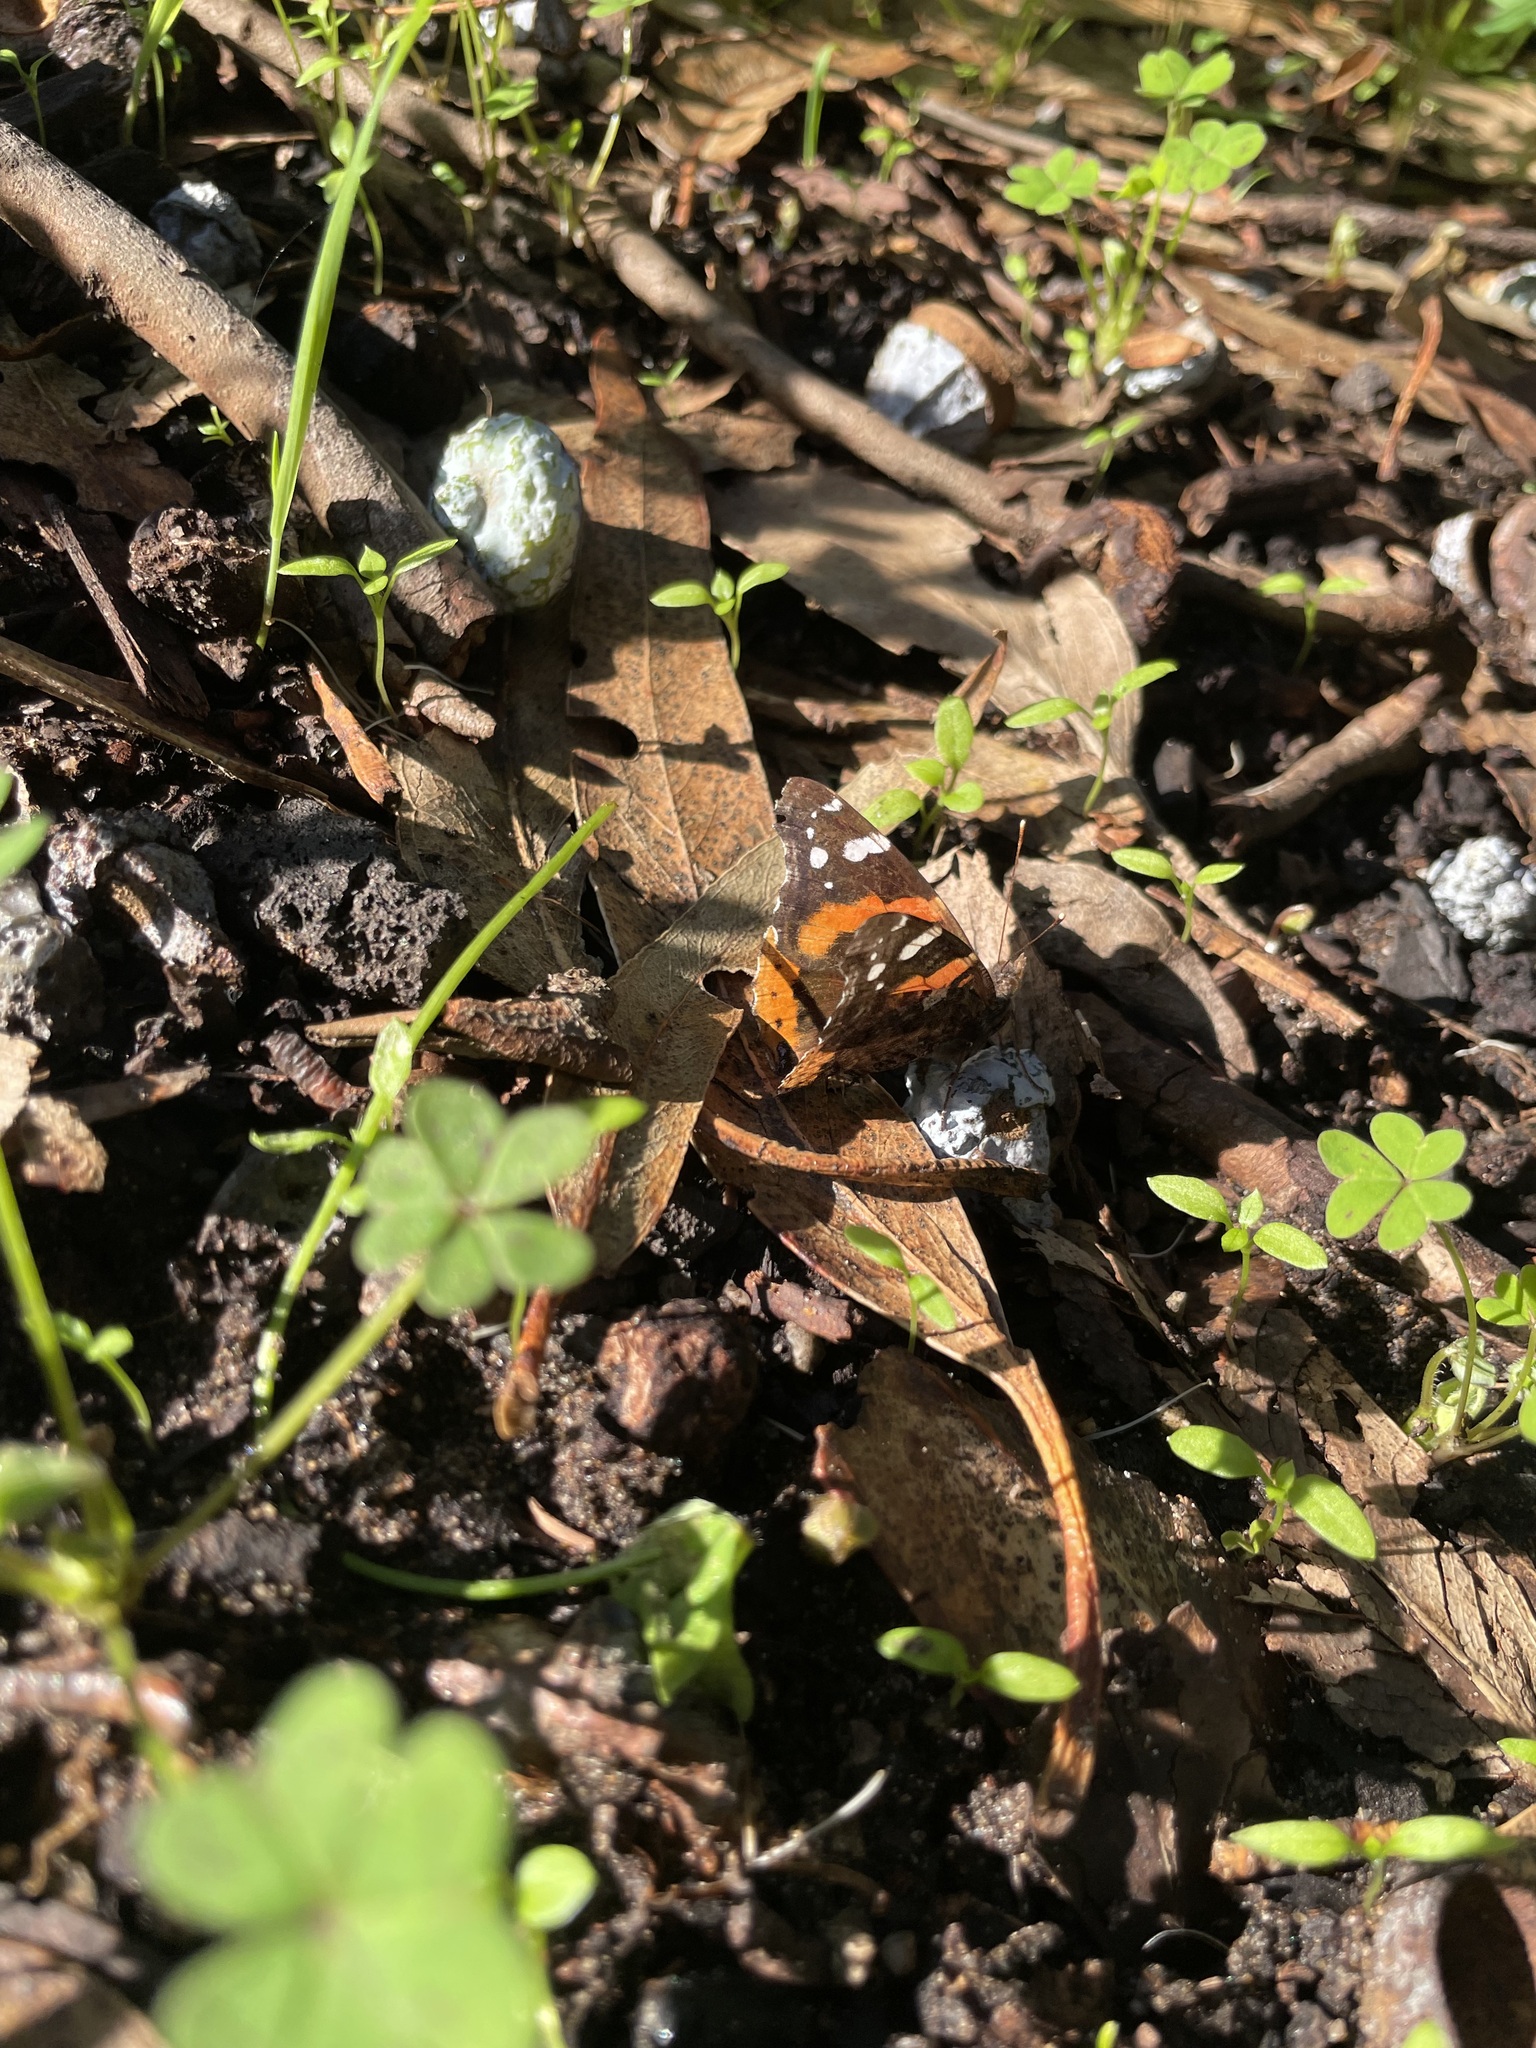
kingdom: Animalia
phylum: Arthropoda
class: Insecta
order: Lepidoptera
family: Nymphalidae
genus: Vanessa
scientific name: Vanessa atalanta
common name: Red admiral
